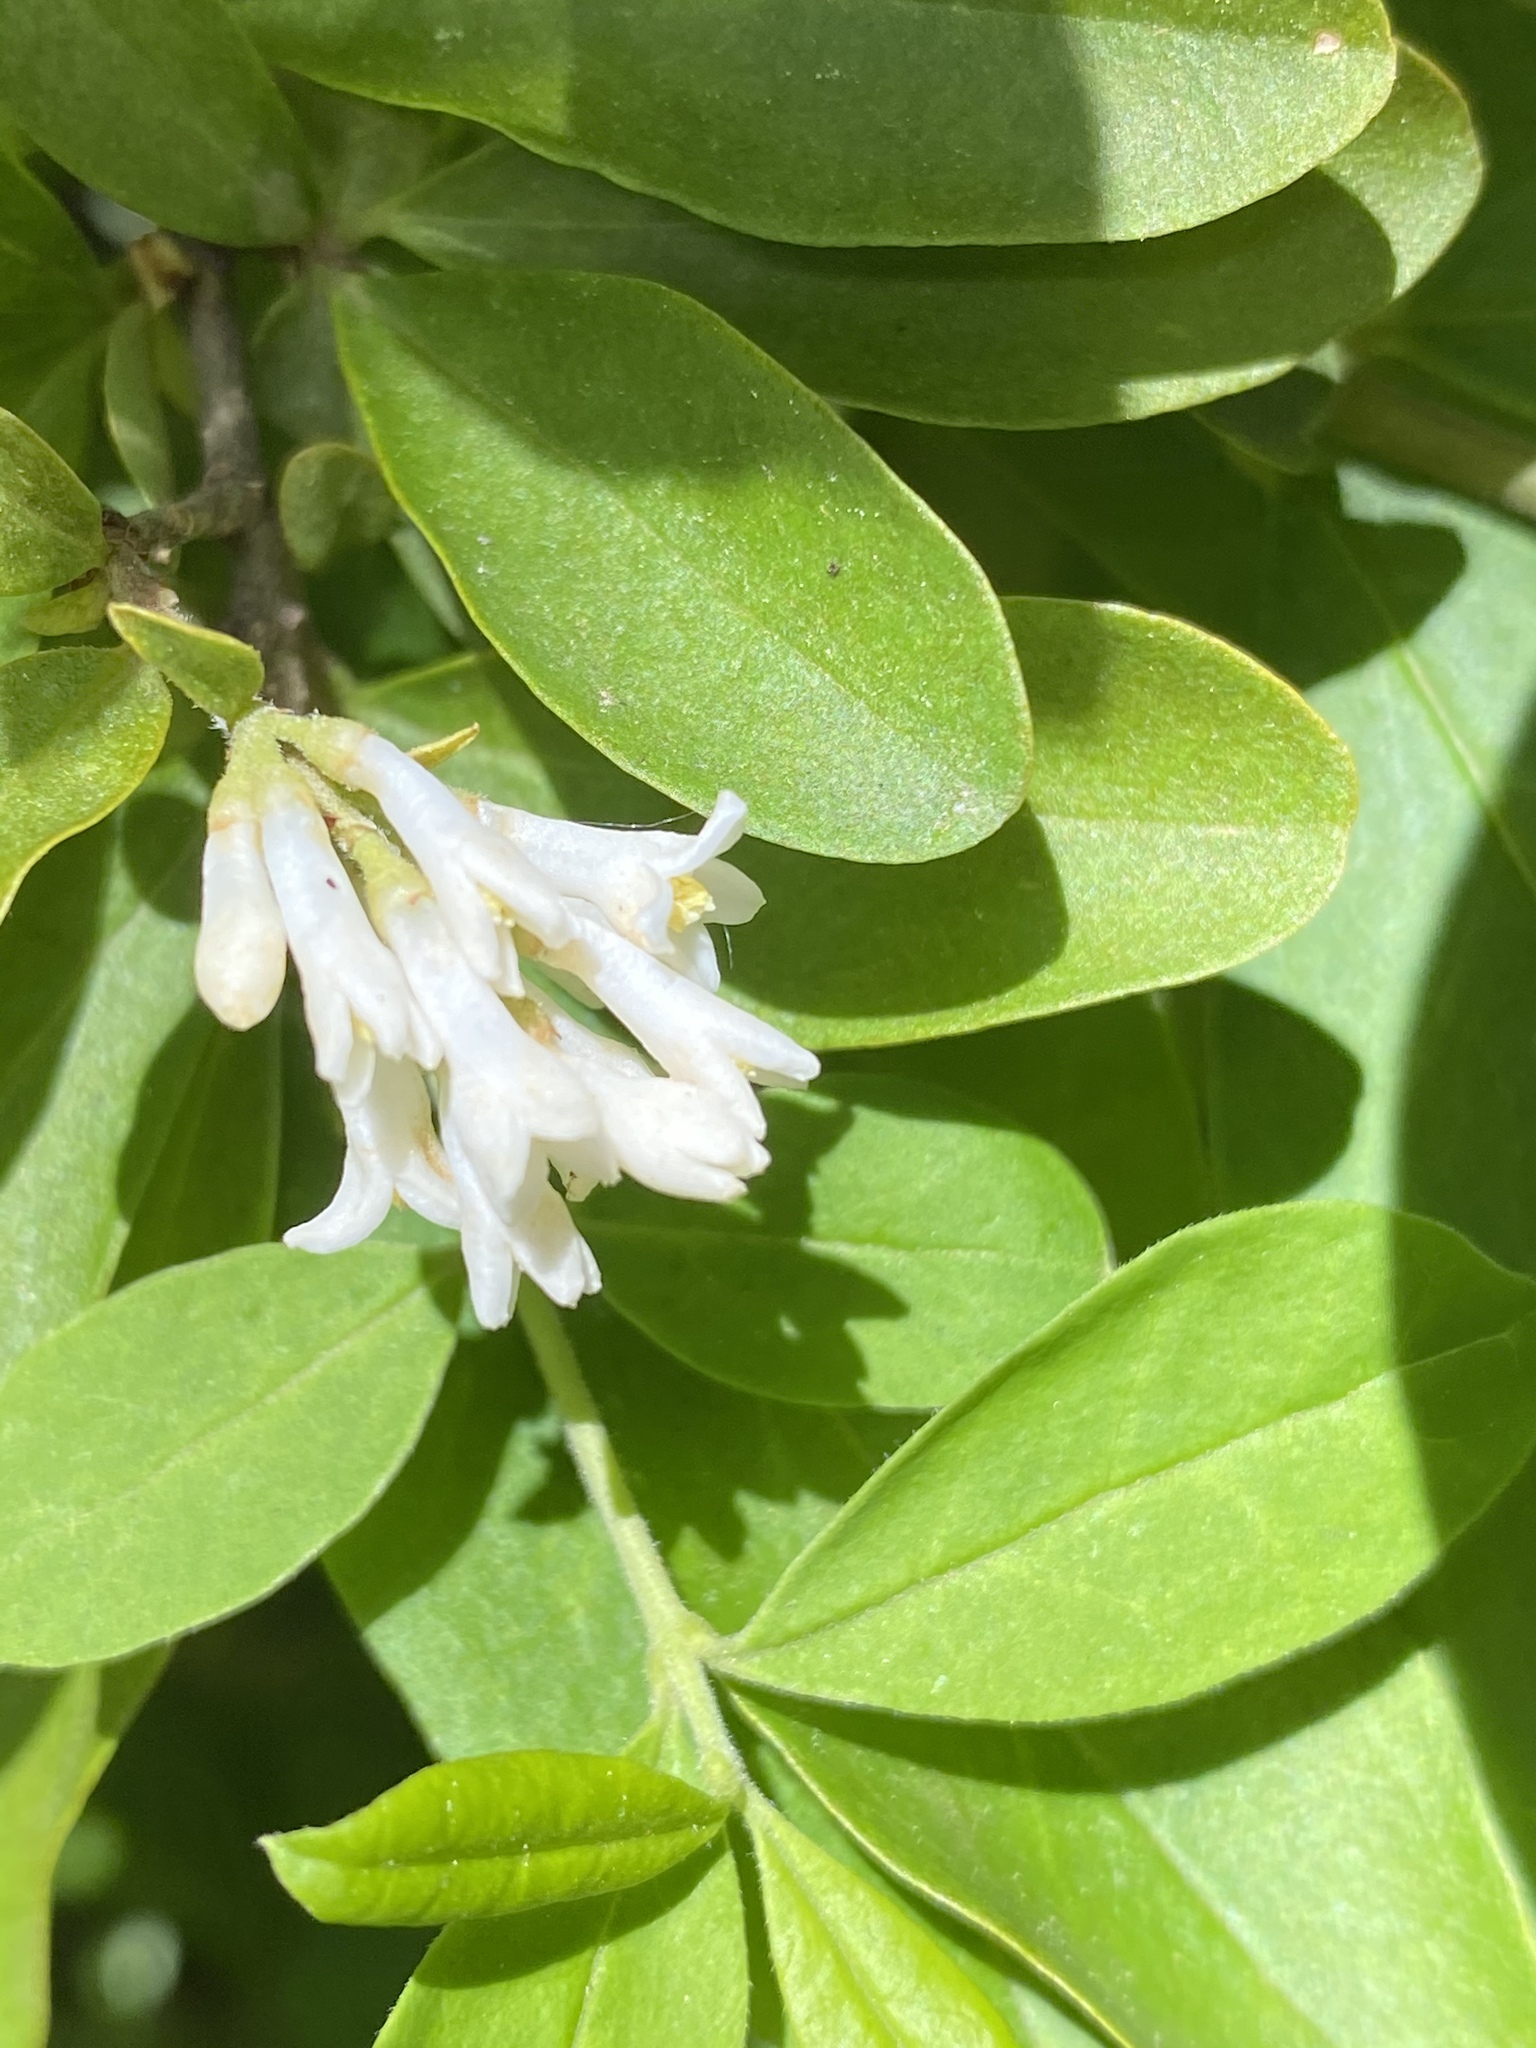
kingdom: Plantae
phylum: Tracheophyta
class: Magnoliopsida
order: Lamiales
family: Oleaceae
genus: Ligustrum
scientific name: Ligustrum obtusifolium
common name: Border privet
